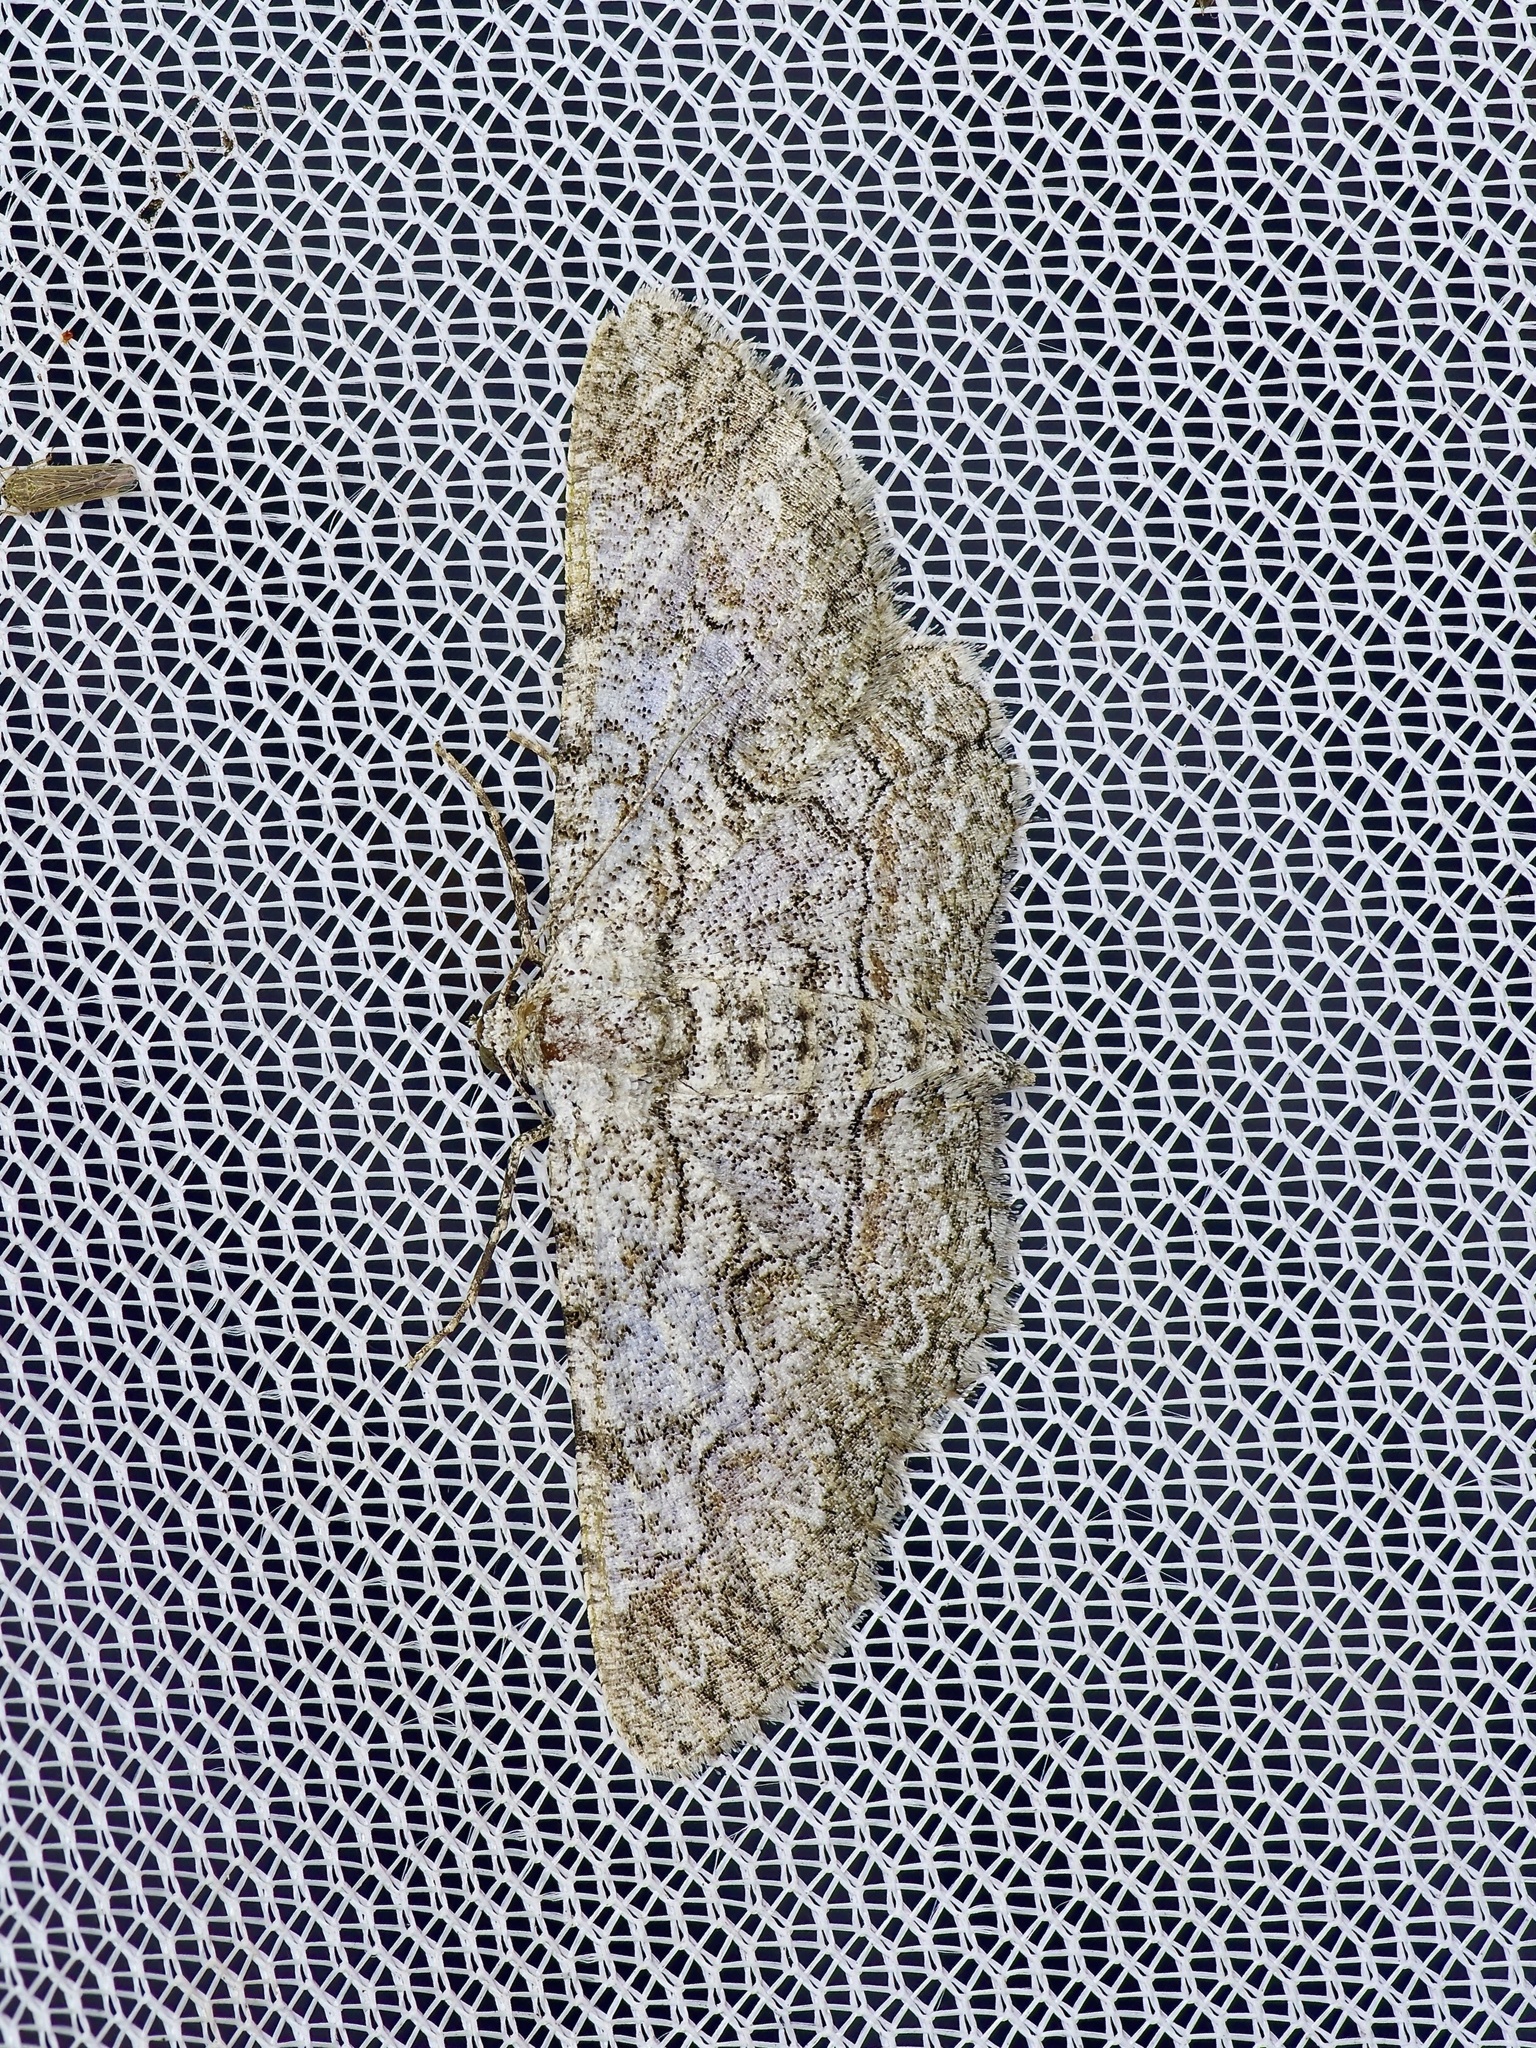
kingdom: Animalia
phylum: Arthropoda
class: Insecta
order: Lepidoptera
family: Geometridae
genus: Iridopsis
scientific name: Iridopsis defectaria
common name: Brown-shaded gray
